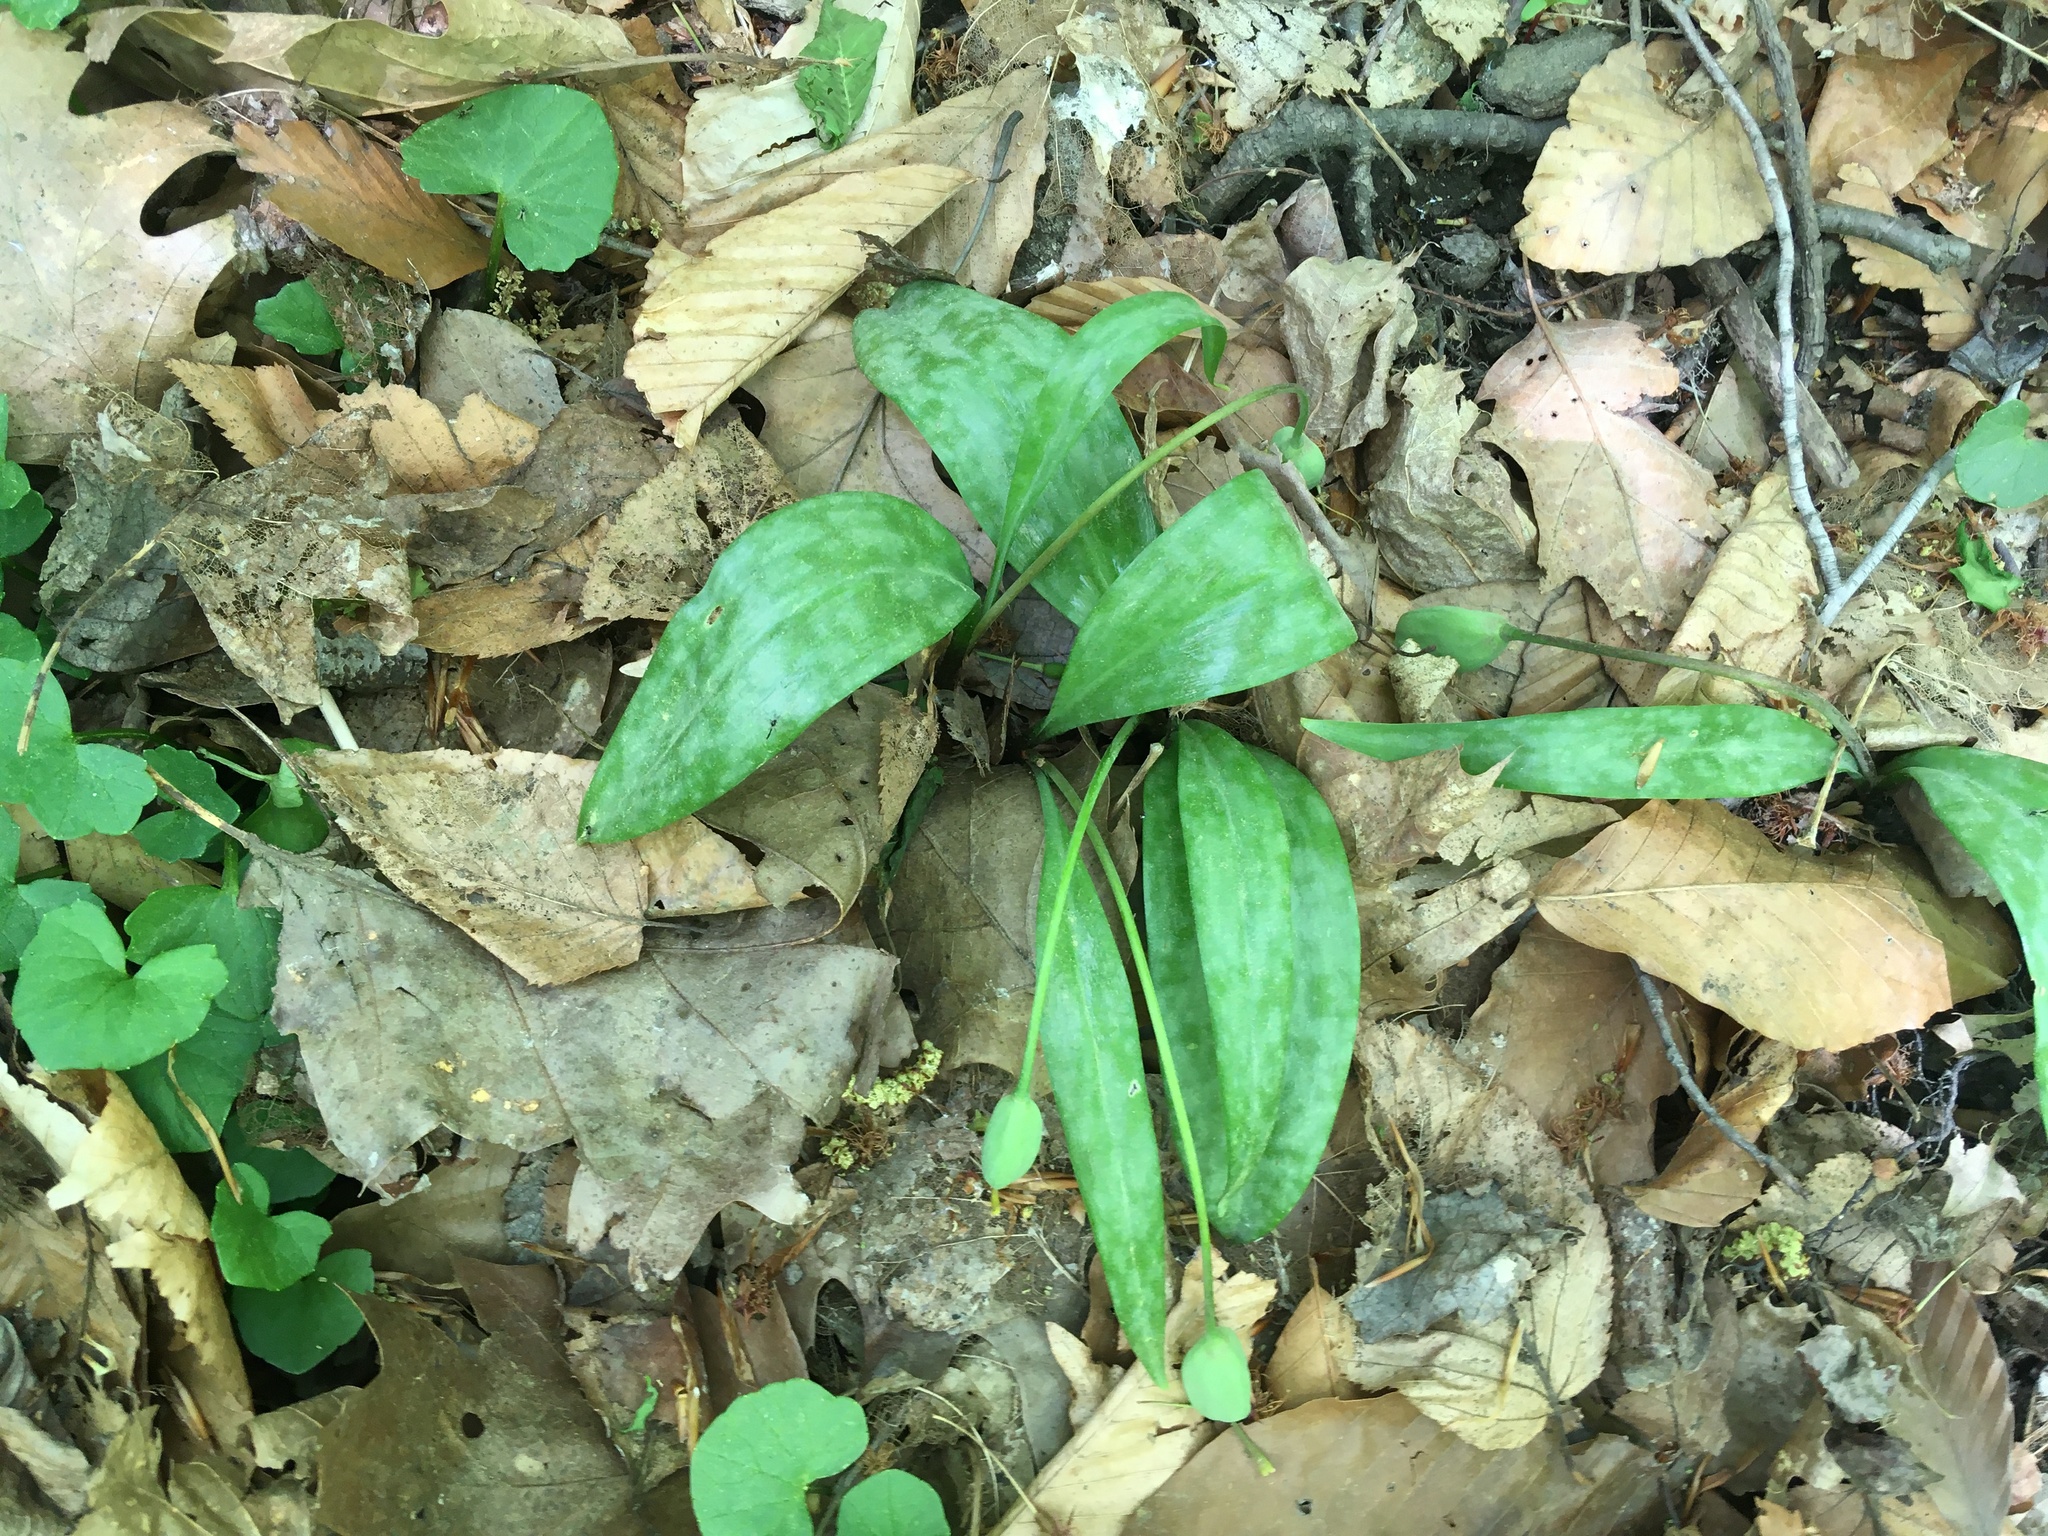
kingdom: Plantae
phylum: Tracheophyta
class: Liliopsida
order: Liliales
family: Liliaceae
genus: Erythronium
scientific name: Erythronium americanum
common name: Yellow adder's-tongue
